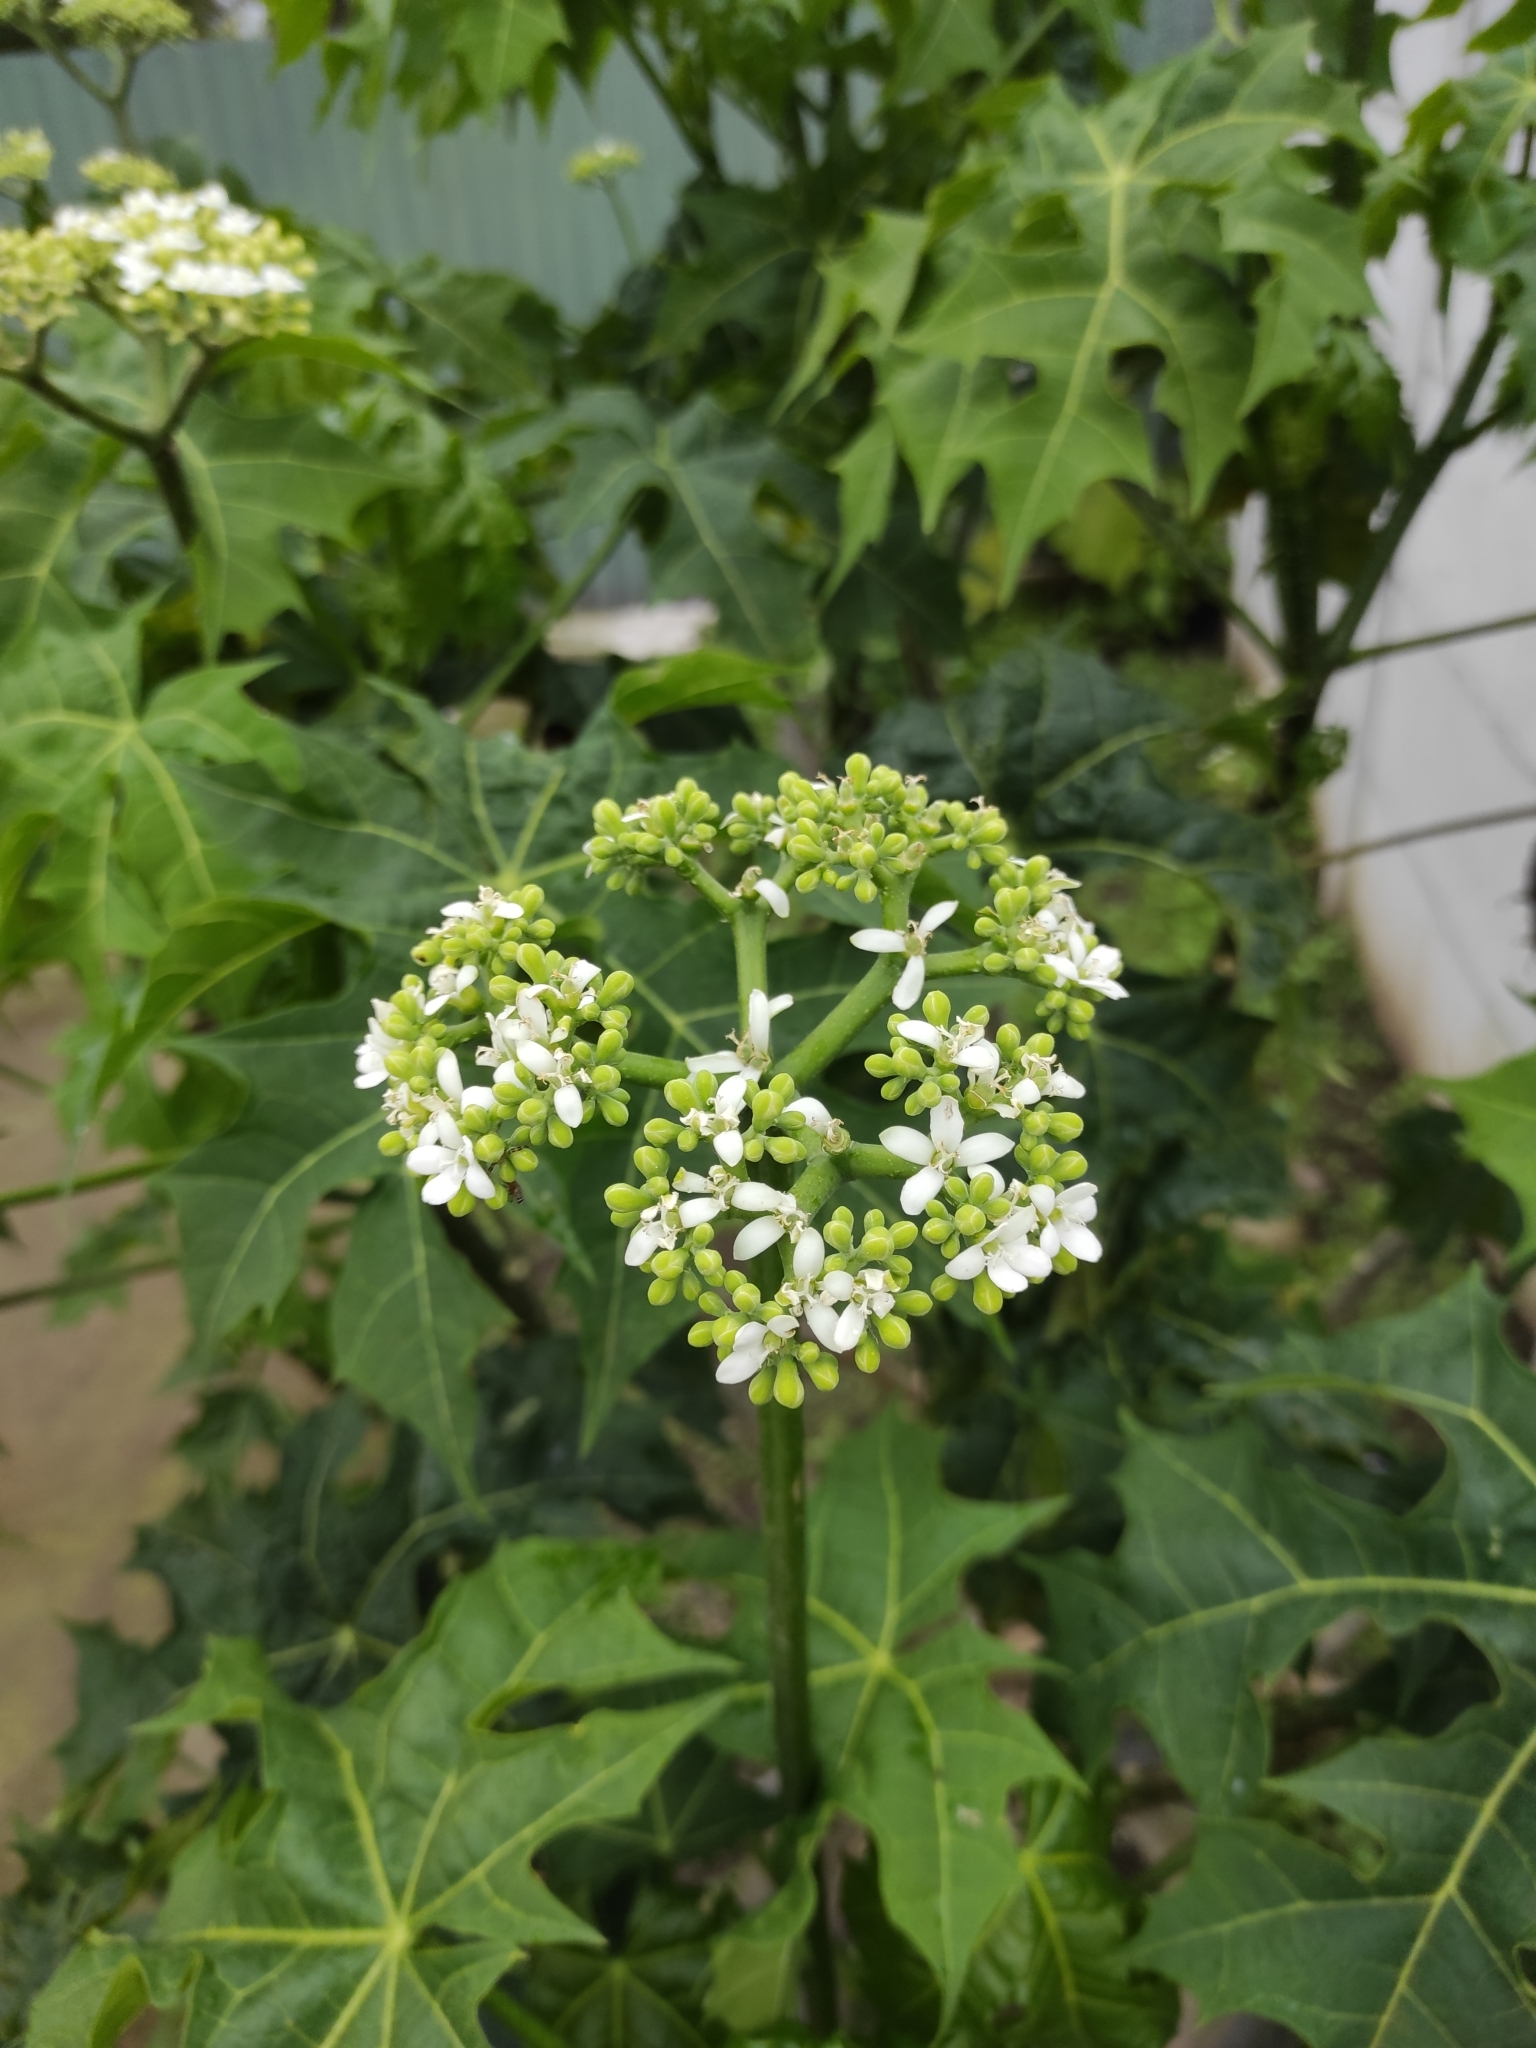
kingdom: Plantae
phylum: Tracheophyta
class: Magnoliopsida
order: Malpighiales
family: Euphorbiaceae
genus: Cnidoscolus
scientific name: Cnidoscolus aconitifolius
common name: Cabbage-star
